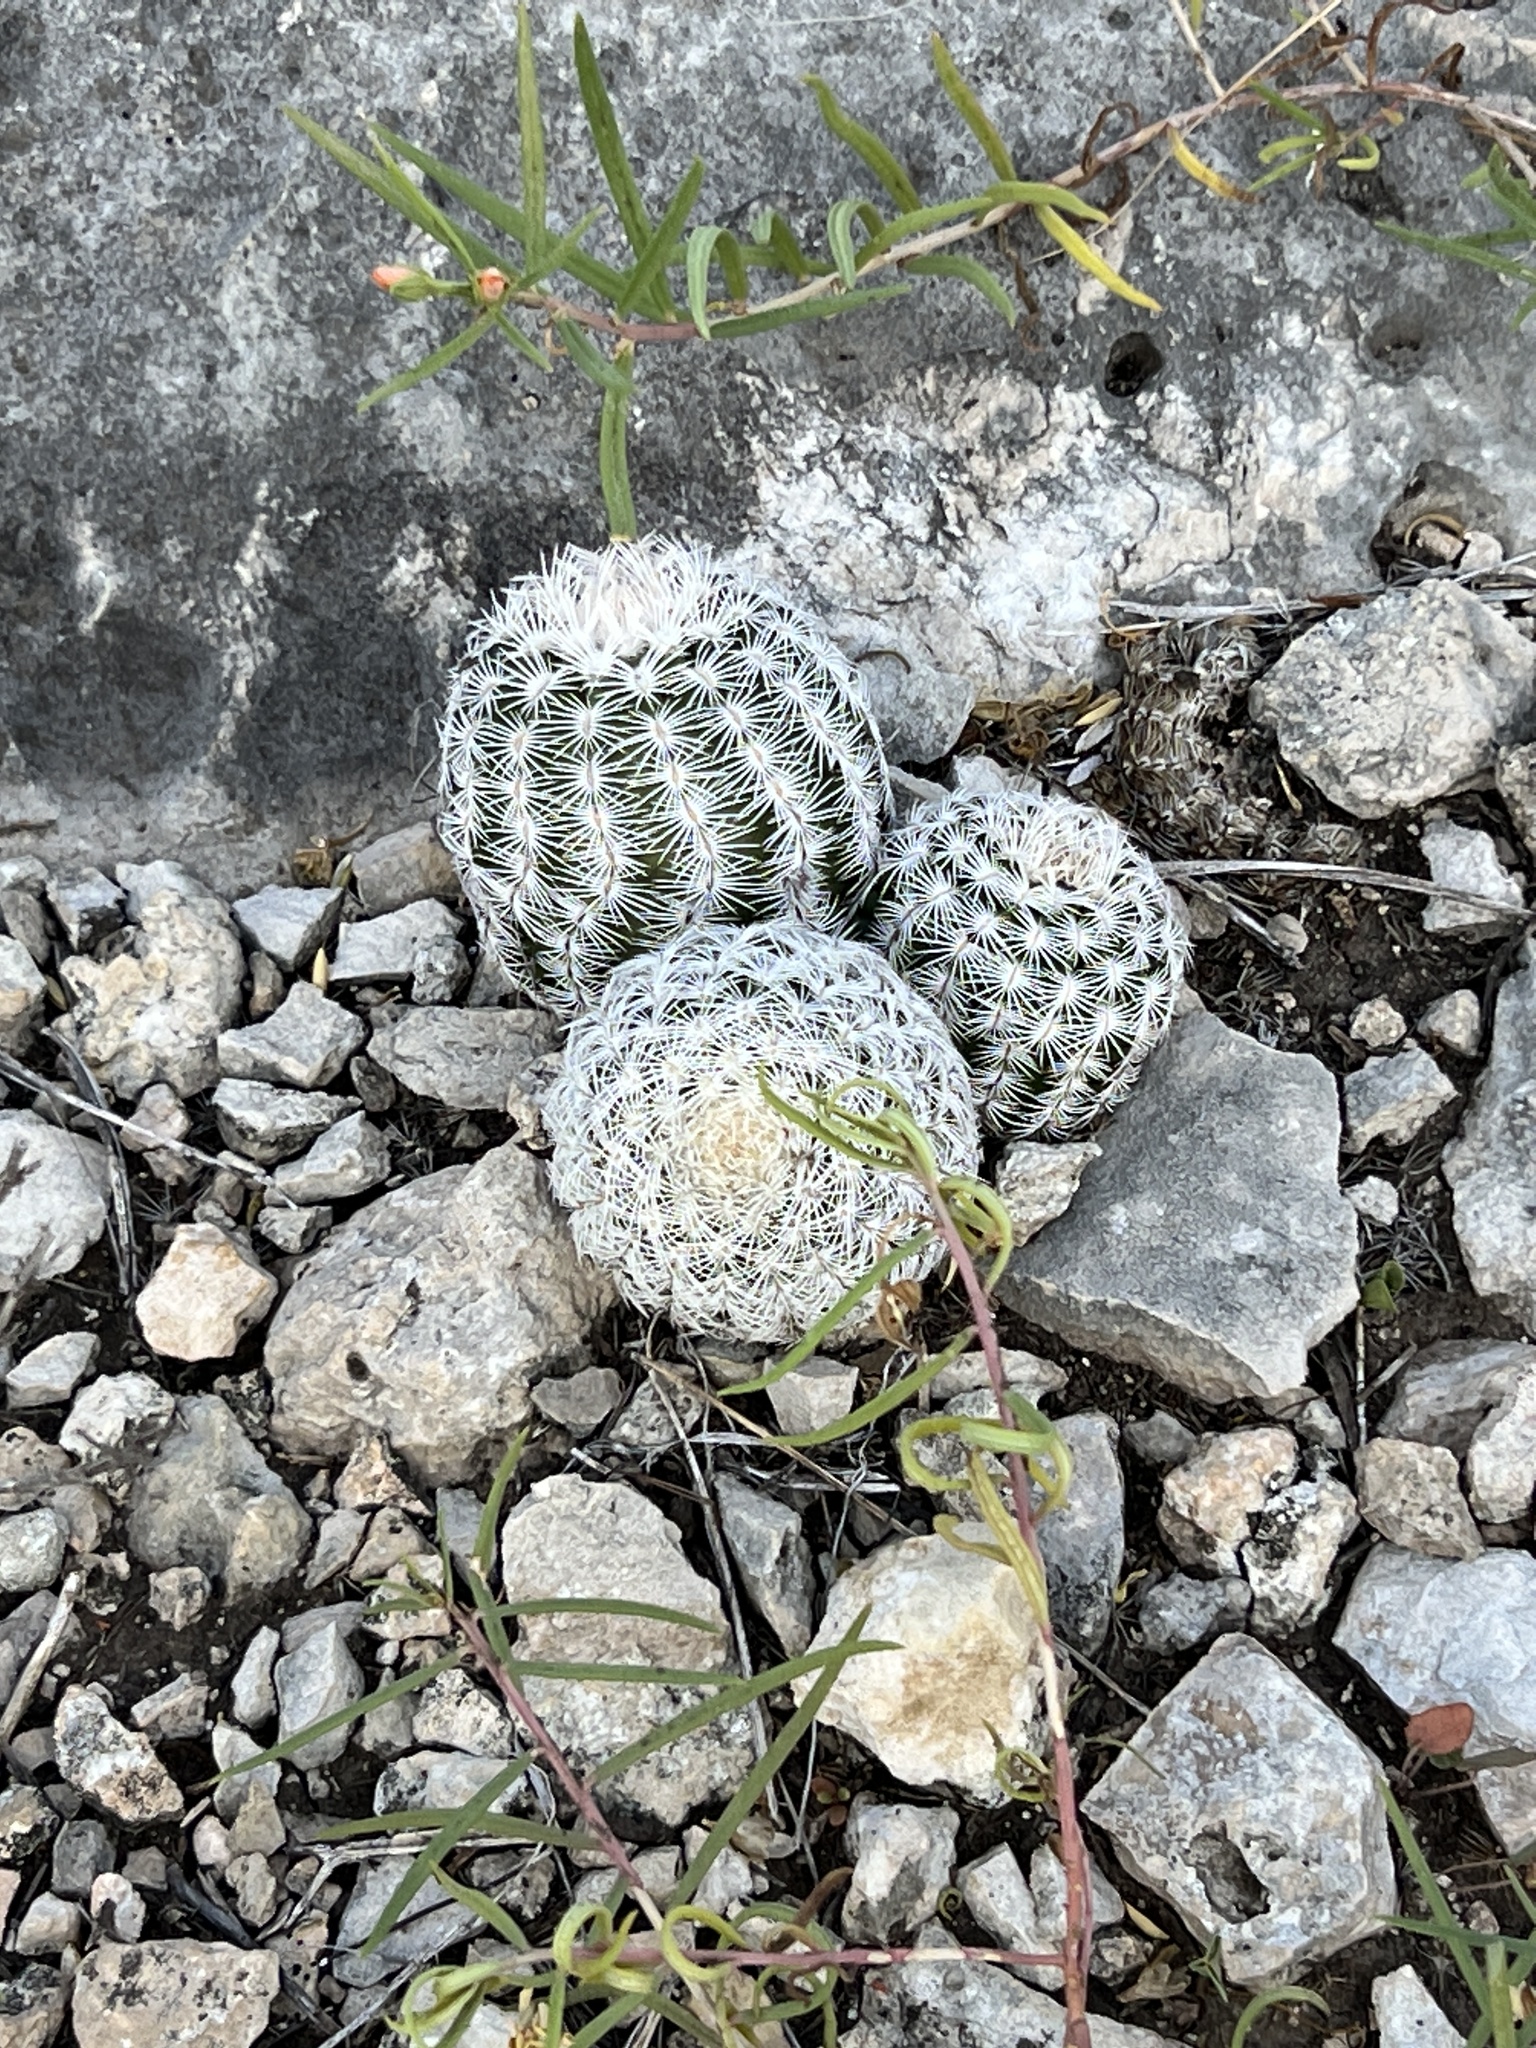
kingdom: Plantae
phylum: Tracheophyta
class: Magnoliopsida
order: Caryophyllales
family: Cactaceae
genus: Echinocereus
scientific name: Echinocereus reichenbachii
